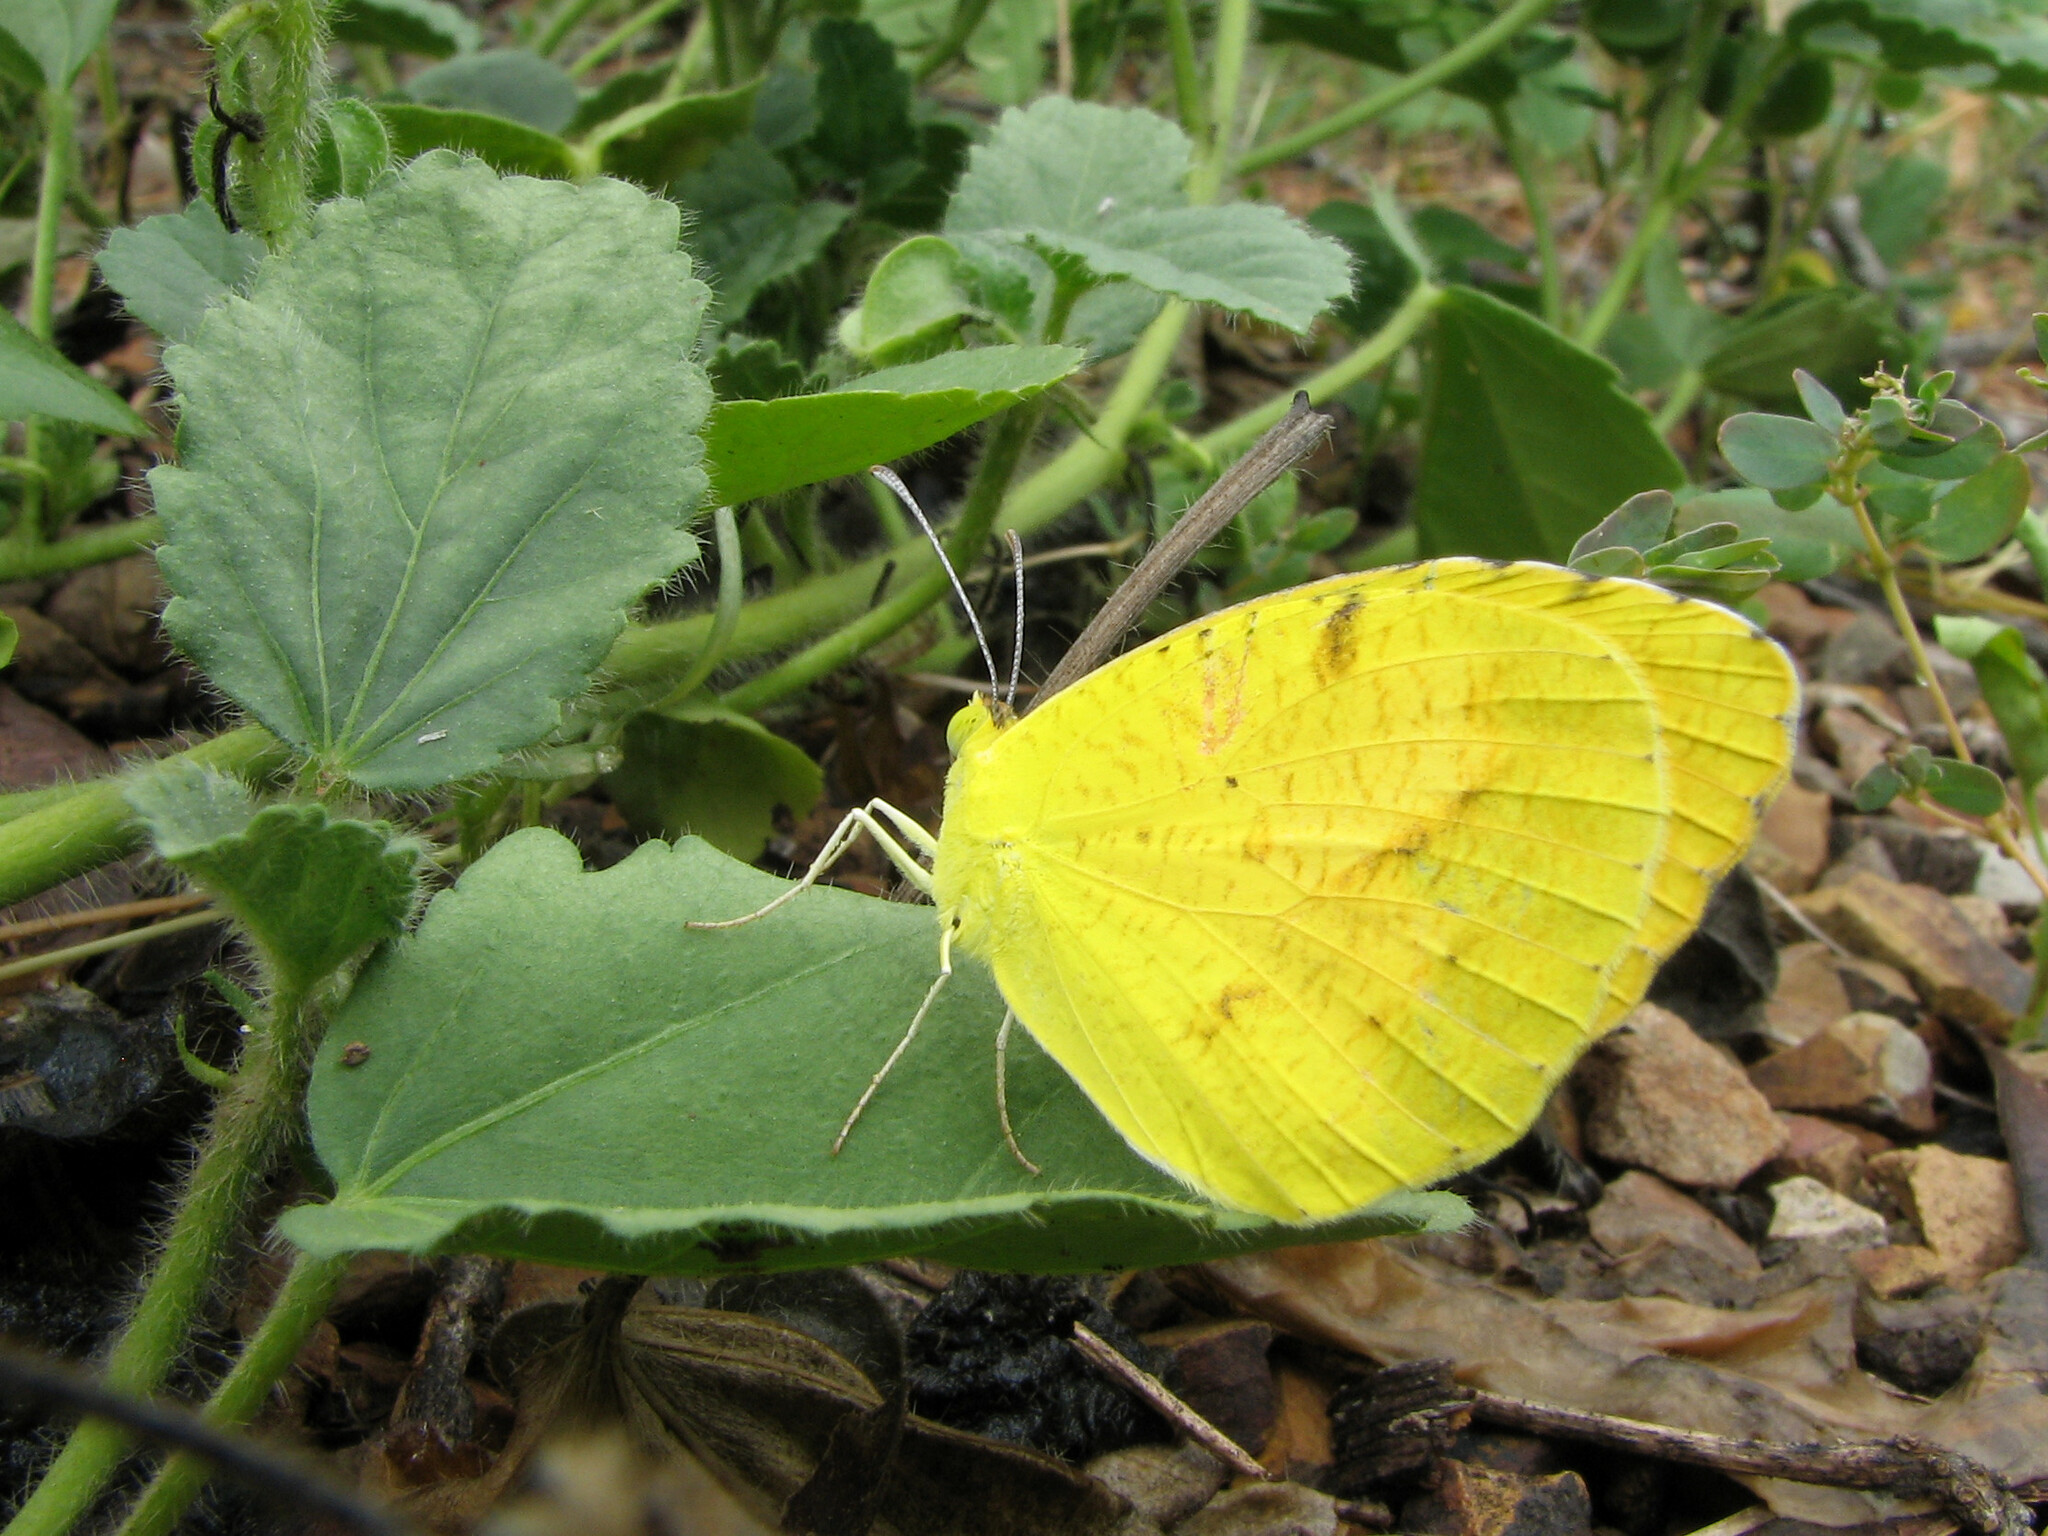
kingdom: Animalia
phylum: Arthropoda
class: Insecta
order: Lepidoptera
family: Pieridae
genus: Abaeis
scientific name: Abaeis nicippe
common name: Sleepy orange
